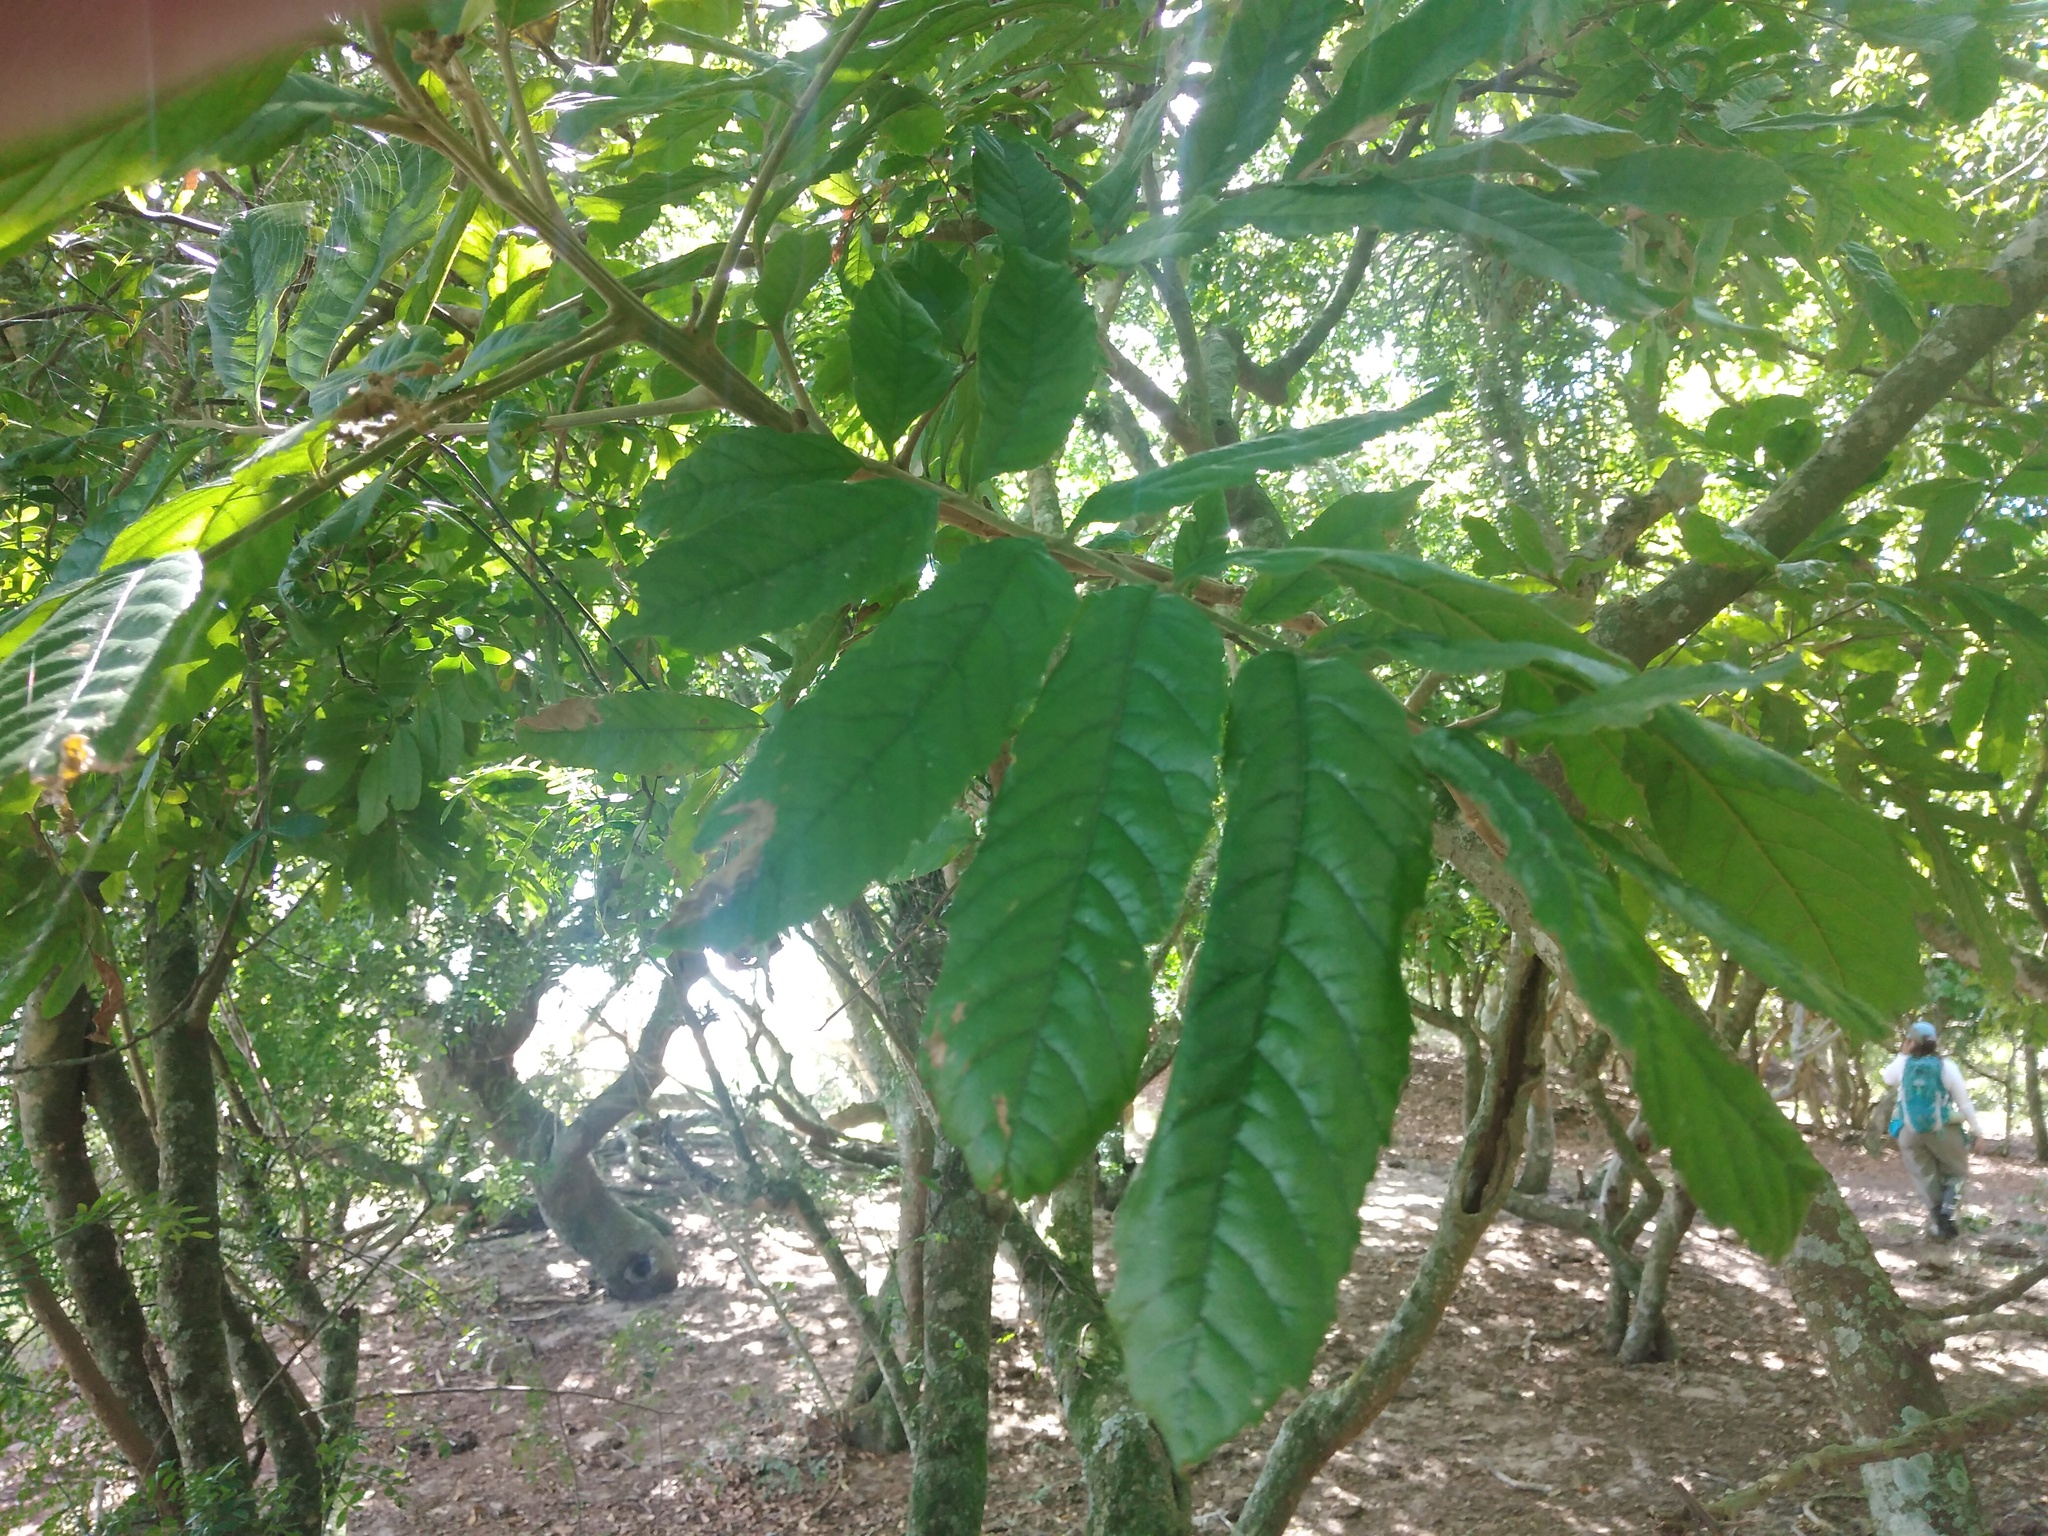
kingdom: Plantae
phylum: Tracheophyta
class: Magnoliopsida
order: Sapindales
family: Sapindaceae
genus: Cupania
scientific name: Cupania vernalis
